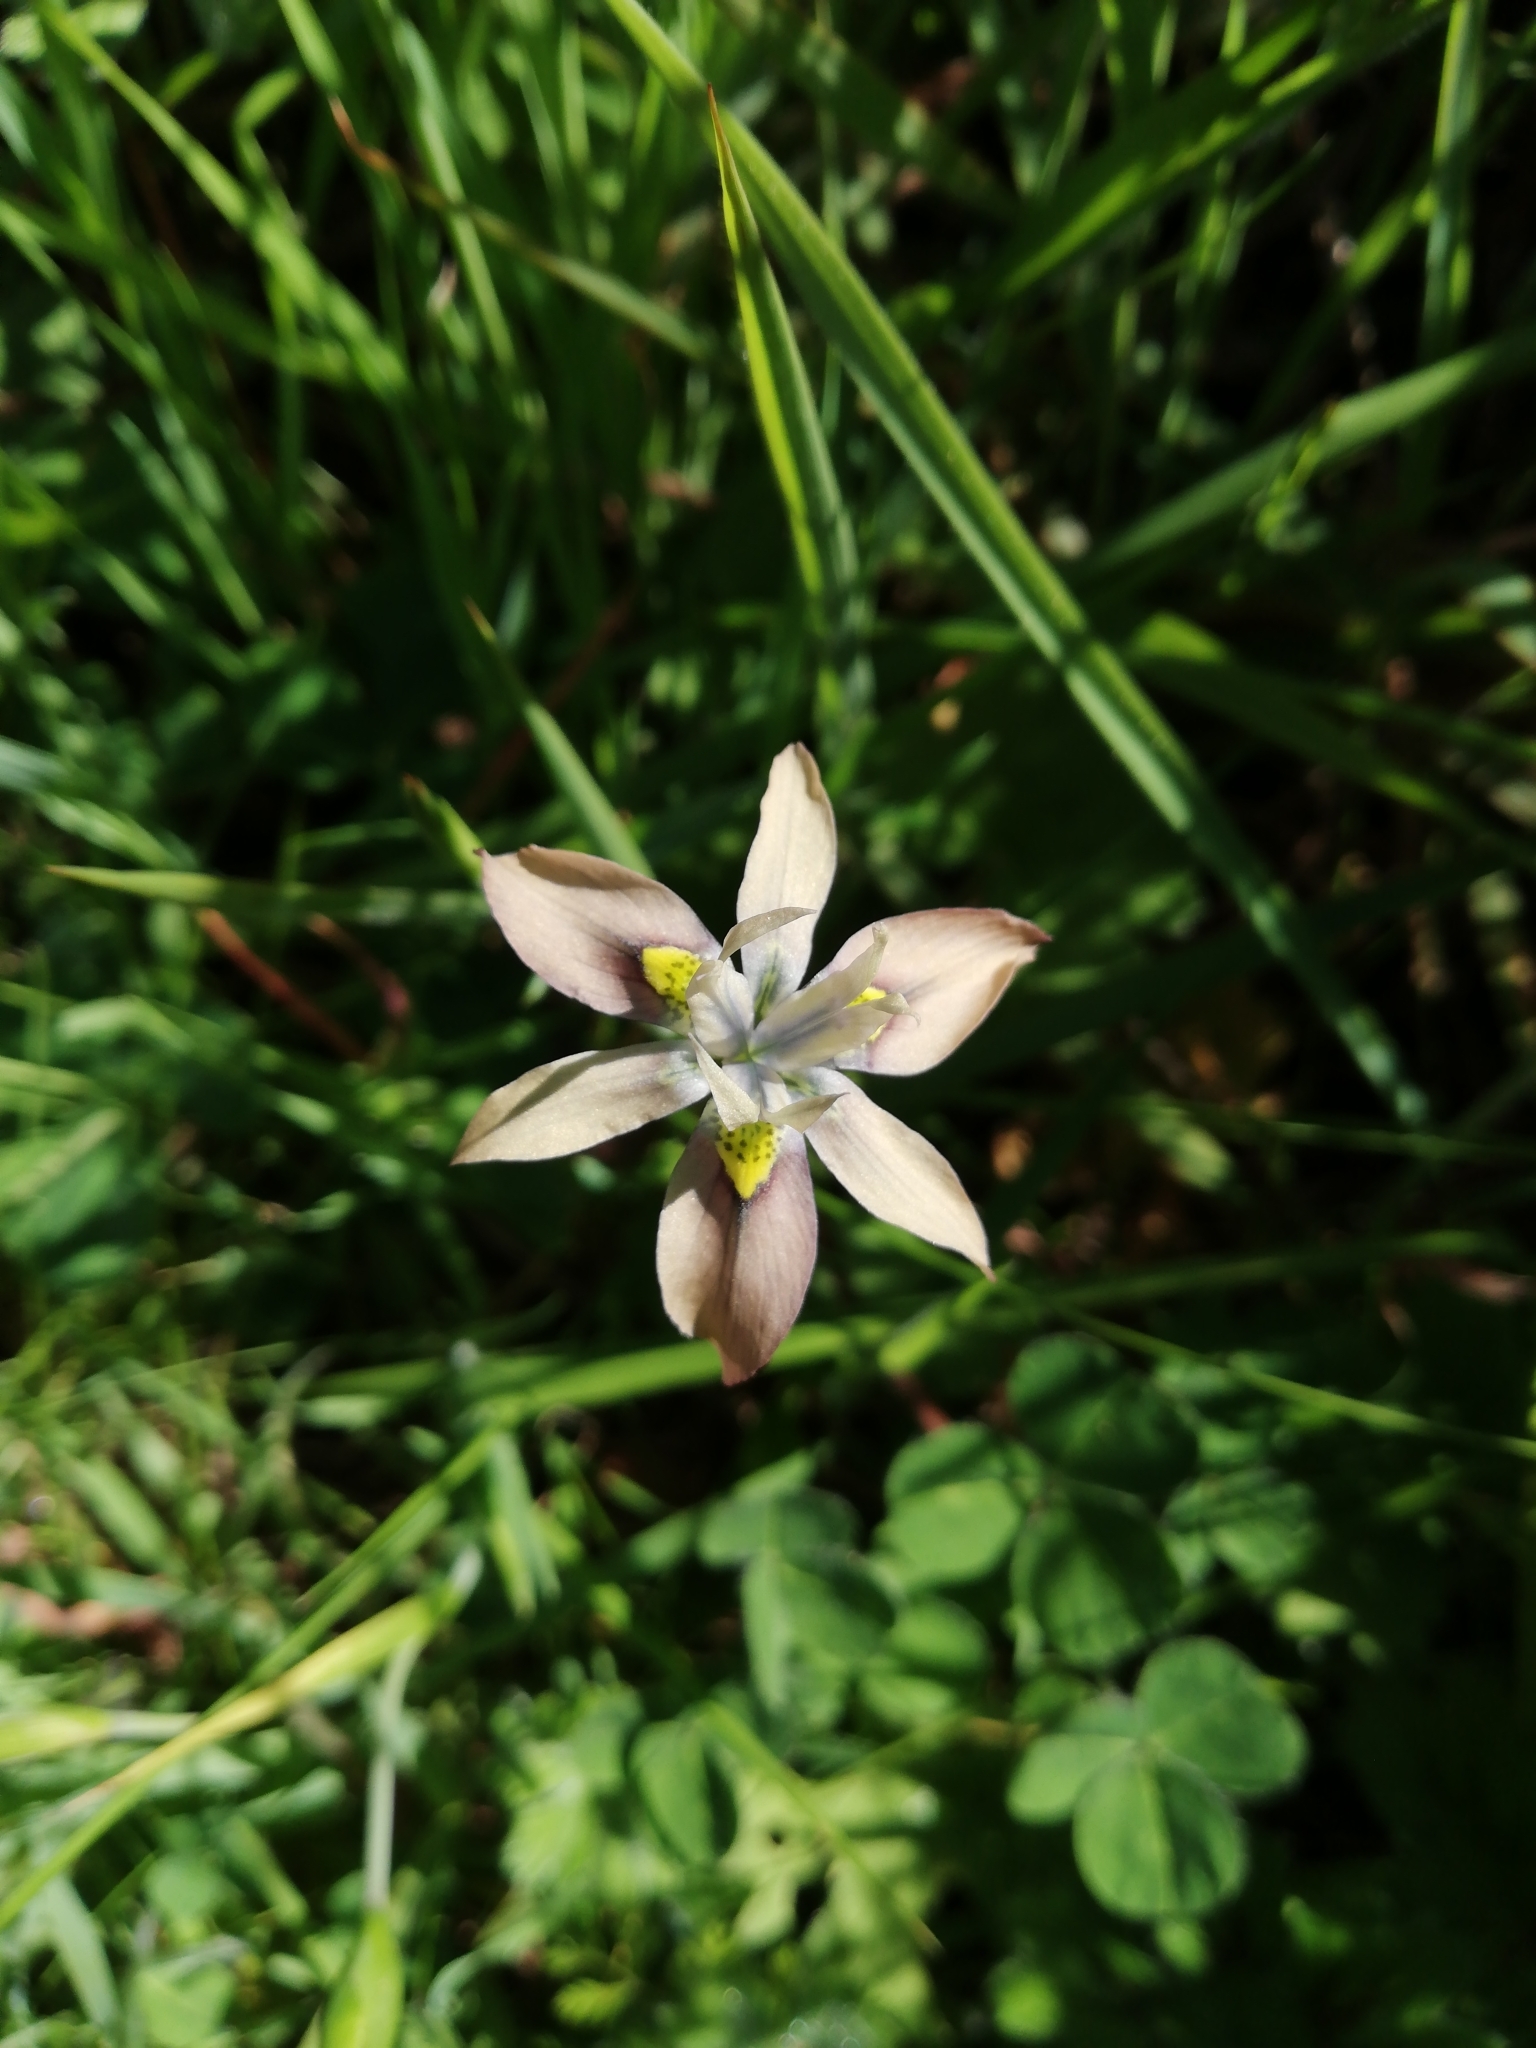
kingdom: Plantae
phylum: Tracheophyta
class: Liliopsida
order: Asparagales
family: Iridaceae
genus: Moraea
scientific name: Moraea vegeta
